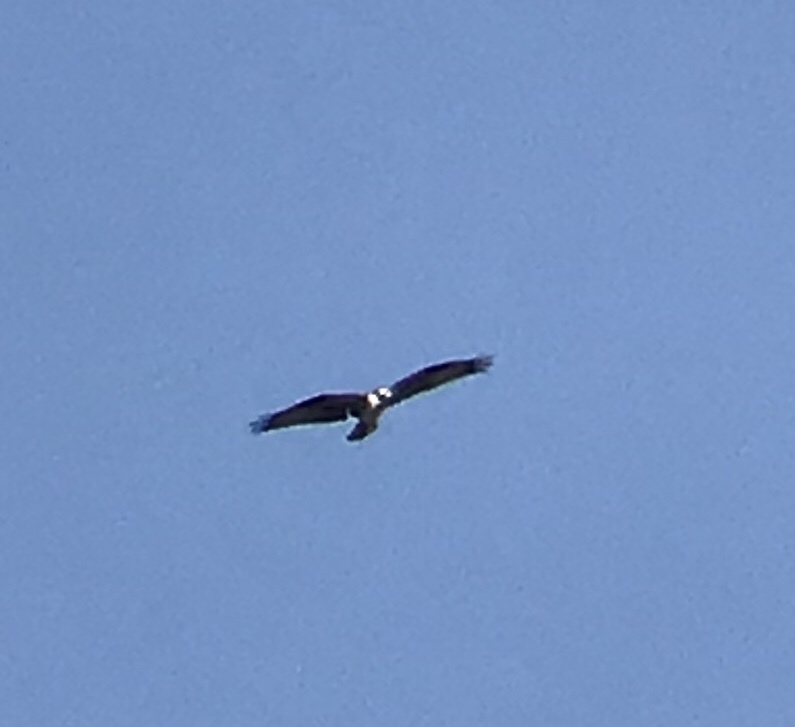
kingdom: Animalia
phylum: Chordata
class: Aves
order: Accipitriformes
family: Pandionidae
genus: Pandion
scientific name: Pandion haliaetus
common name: Osprey
